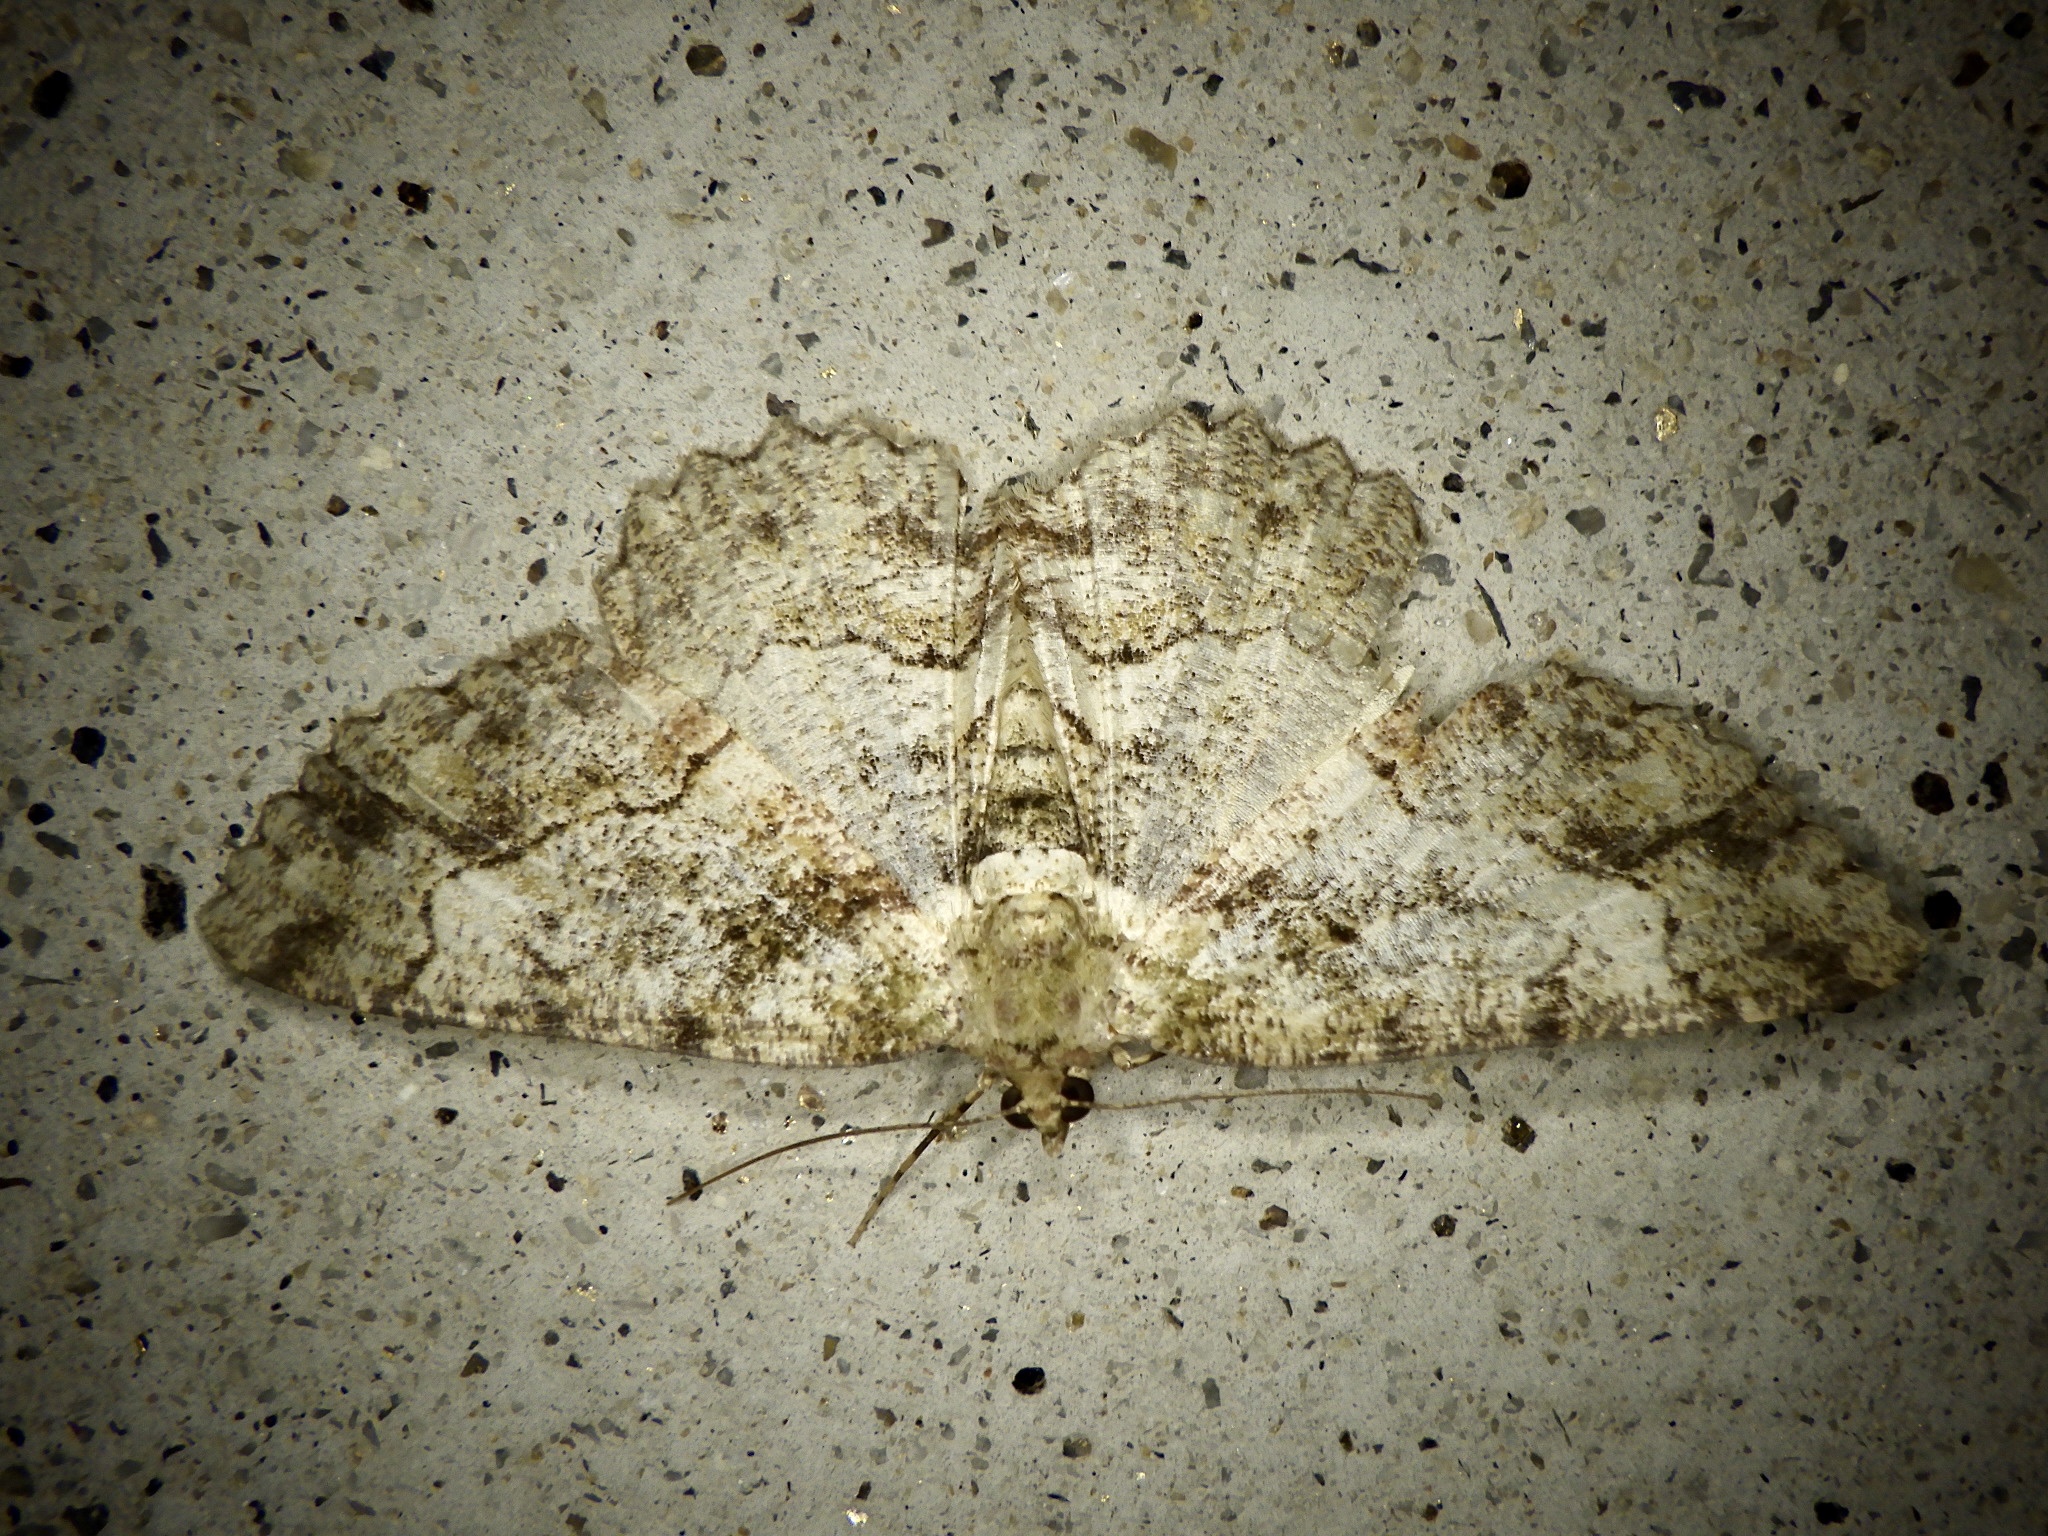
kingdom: Animalia
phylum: Arthropoda
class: Insecta
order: Lepidoptera
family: Geometridae
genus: Paradarisa
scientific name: Paradarisa chloauges
